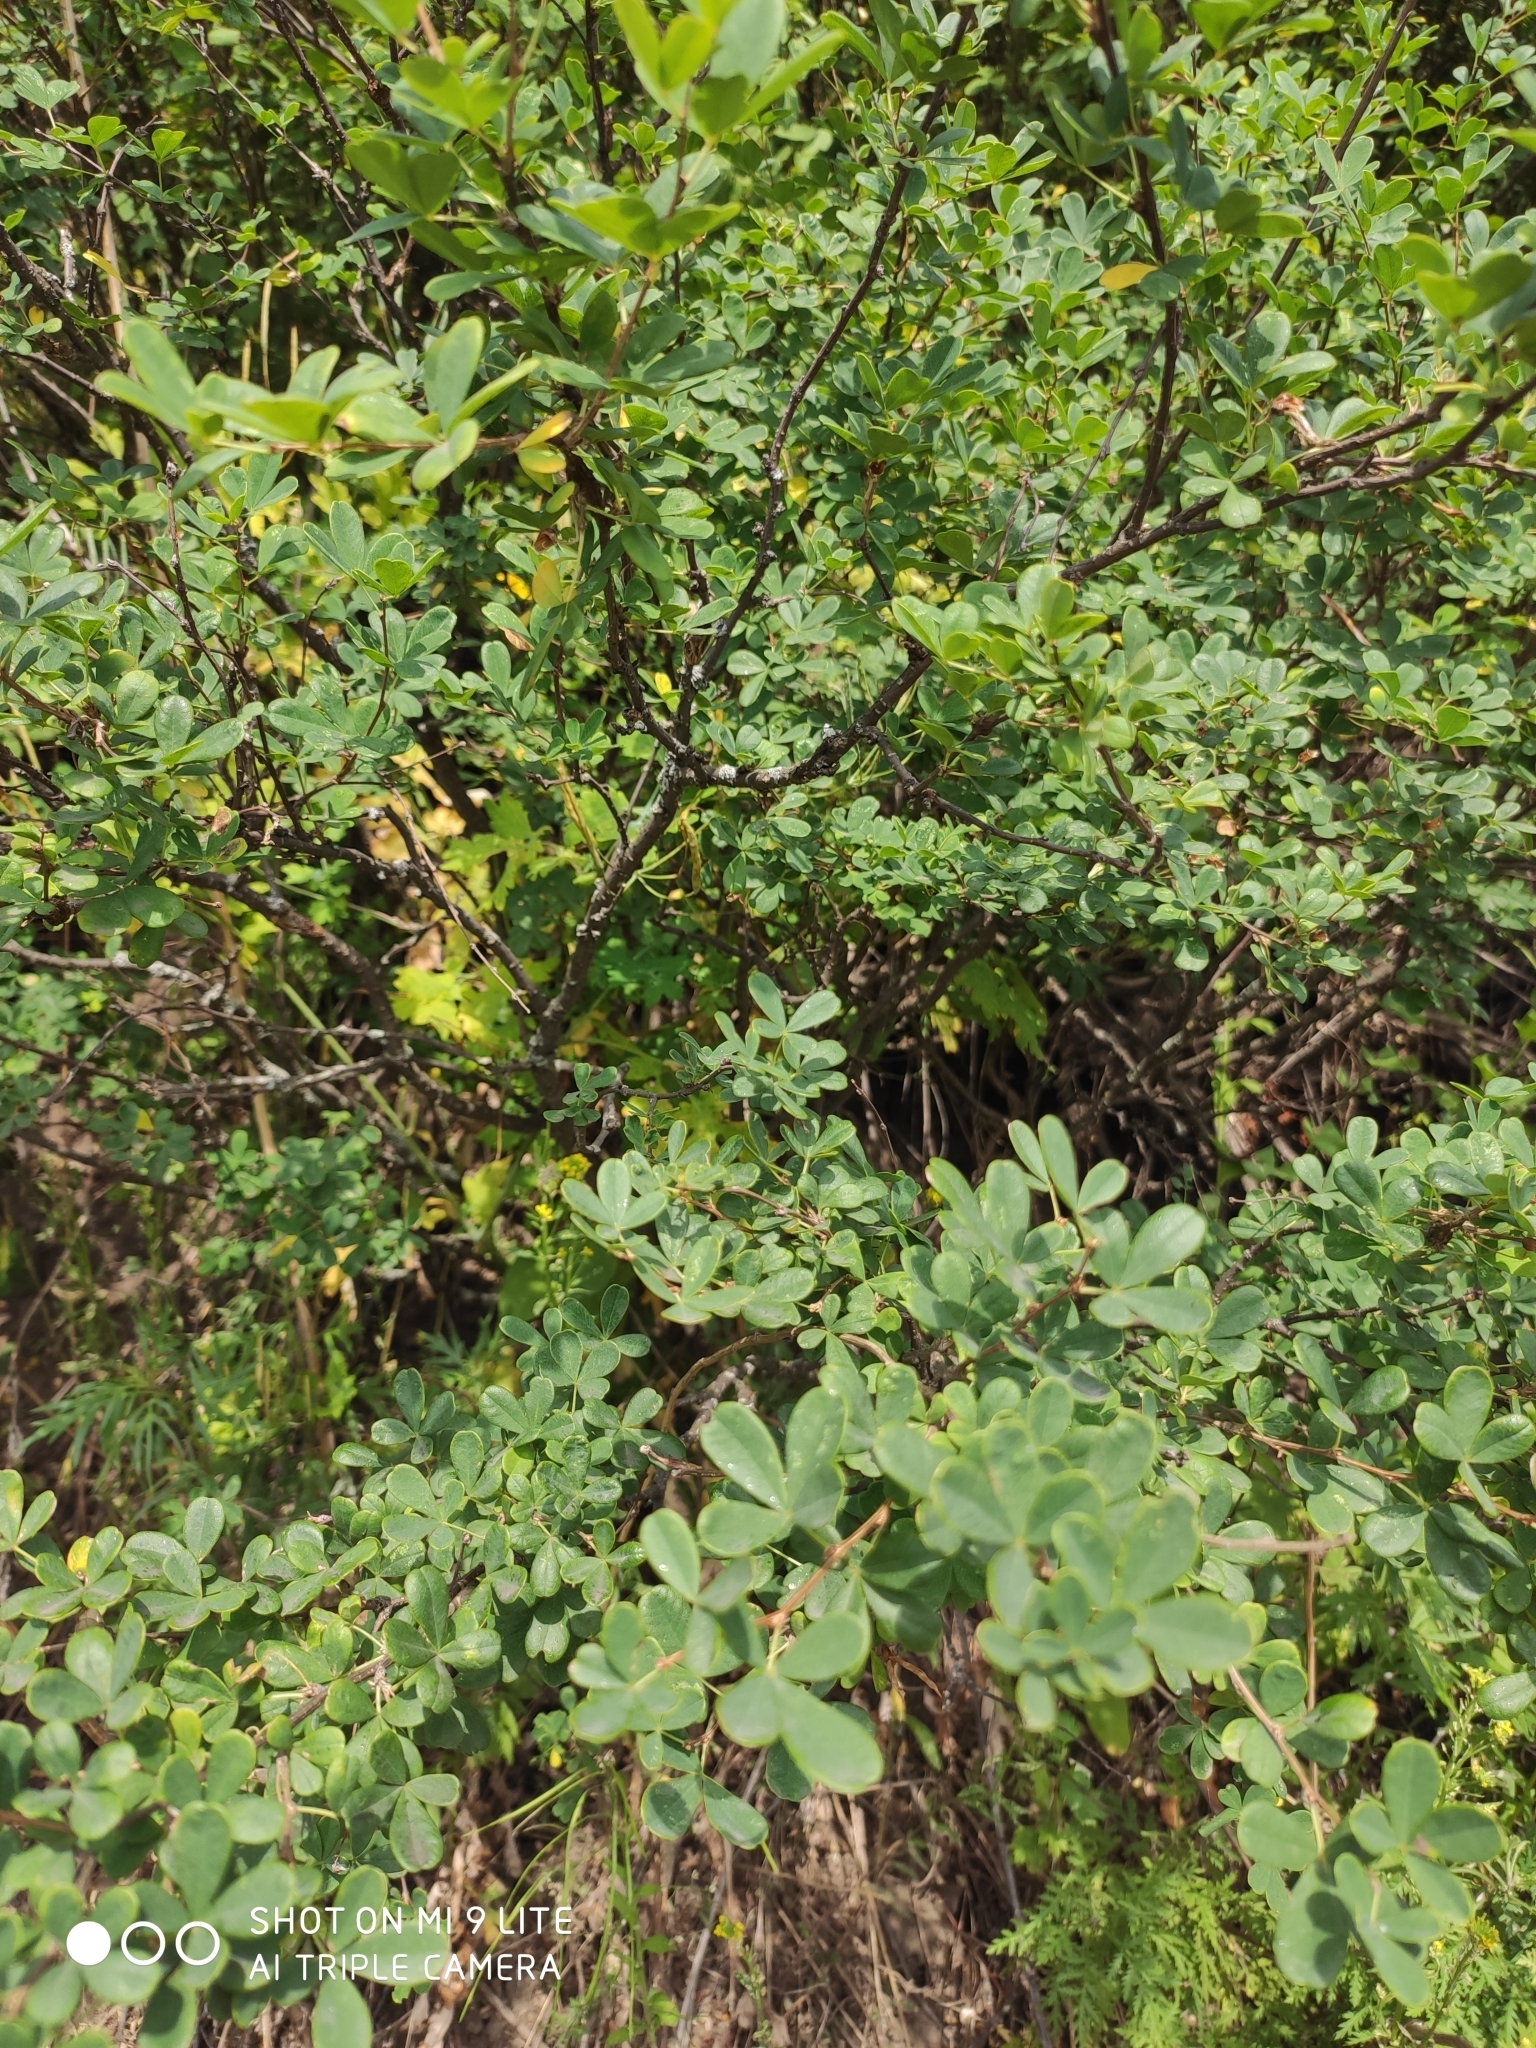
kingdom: Plantae
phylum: Tracheophyta
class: Magnoliopsida
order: Fabales
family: Fabaceae
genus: Caragana
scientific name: Caragana frutex
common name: Russian peashrub
